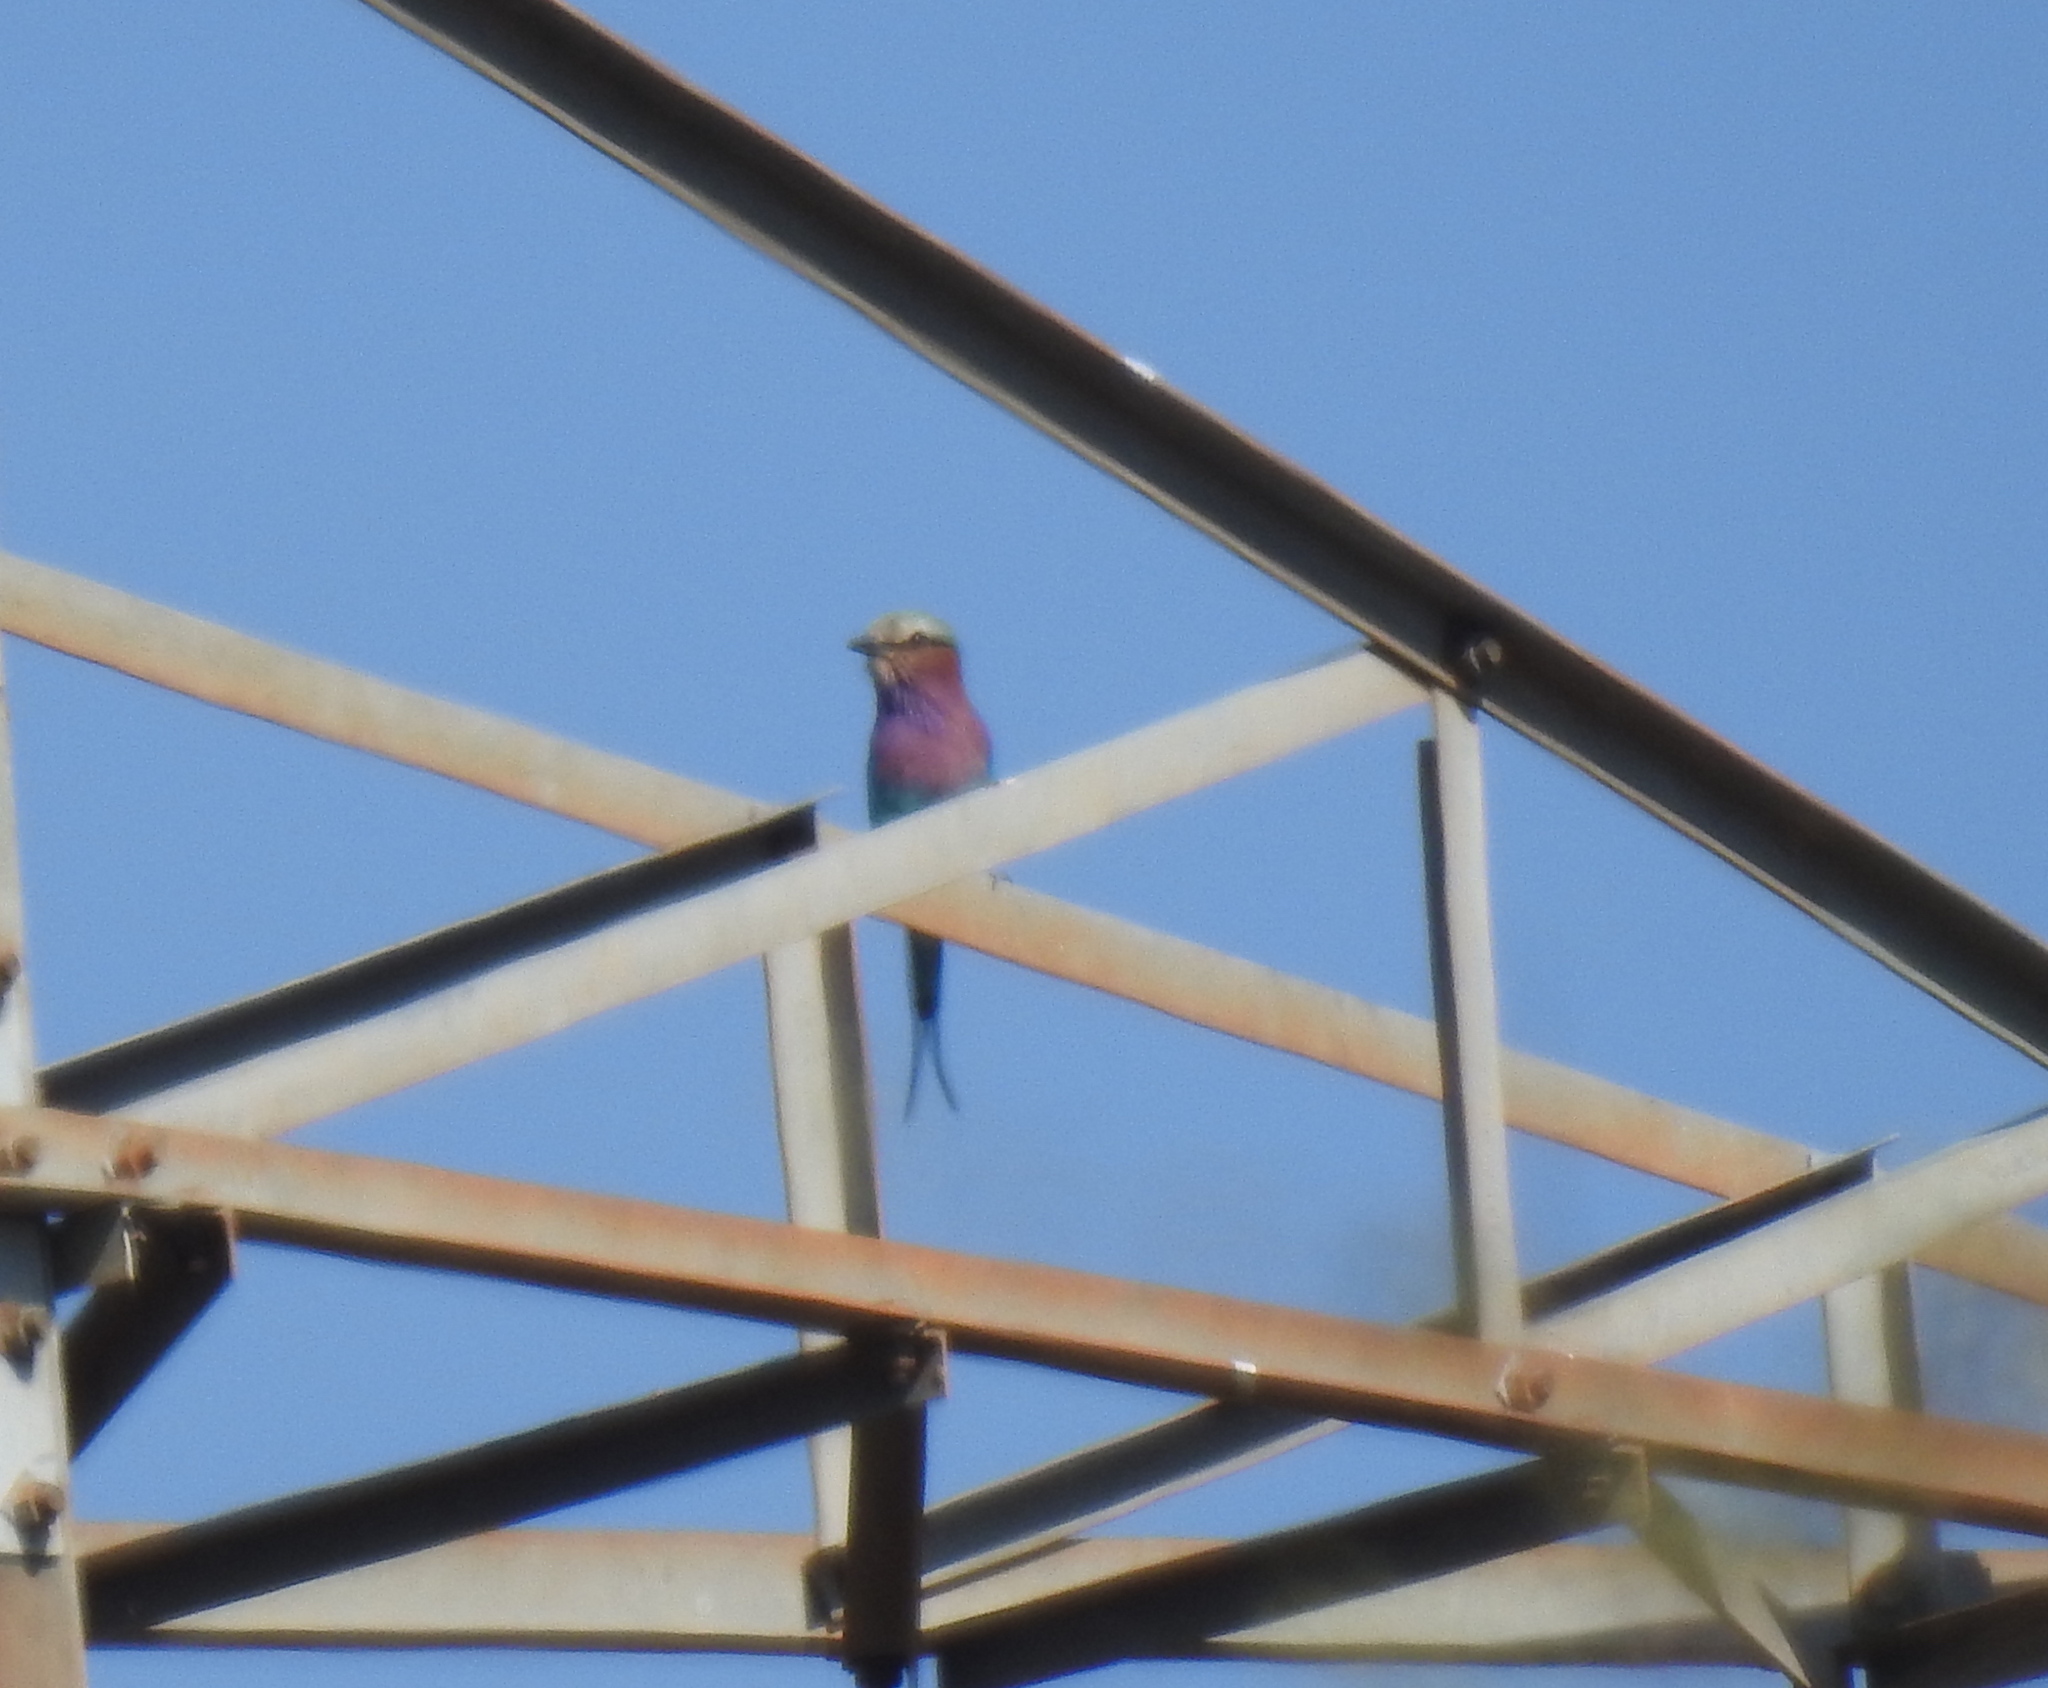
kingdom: Animalia
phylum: Chordata
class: Aves
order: Coraciiformes
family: Coraciidae
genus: Coracias
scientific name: Coracias caudatus
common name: Lilac-breasted roller
